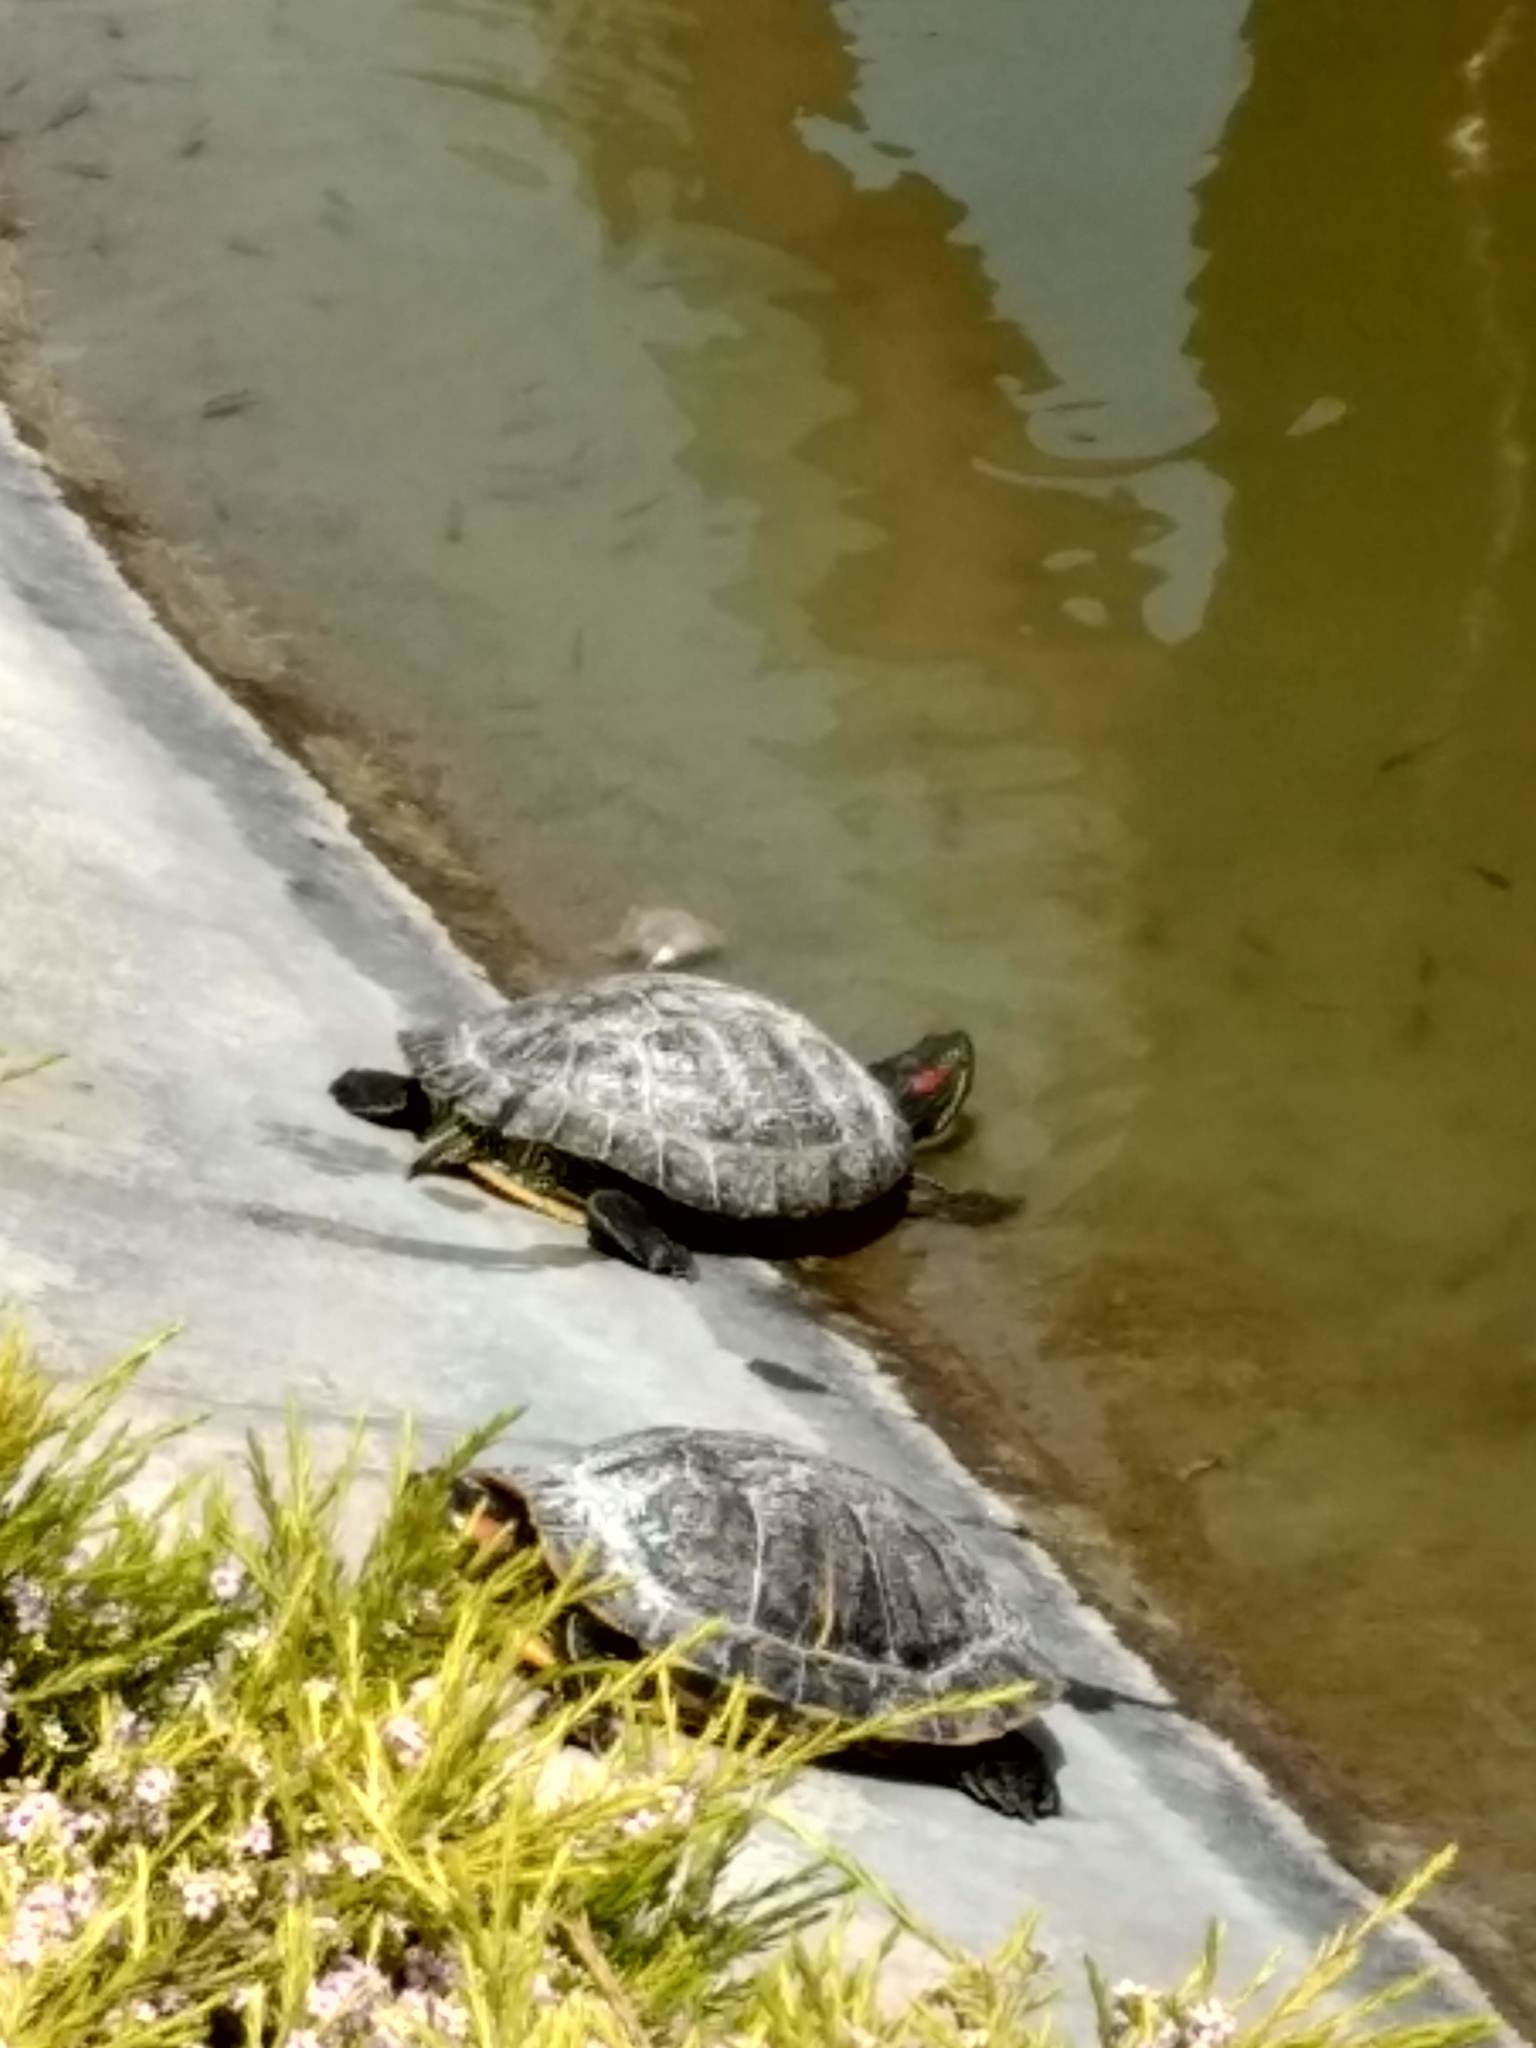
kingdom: Animalia
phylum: Chordata
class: Testudines
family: Emydidae
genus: Trachemys
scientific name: Trachemys scripta
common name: Slider
